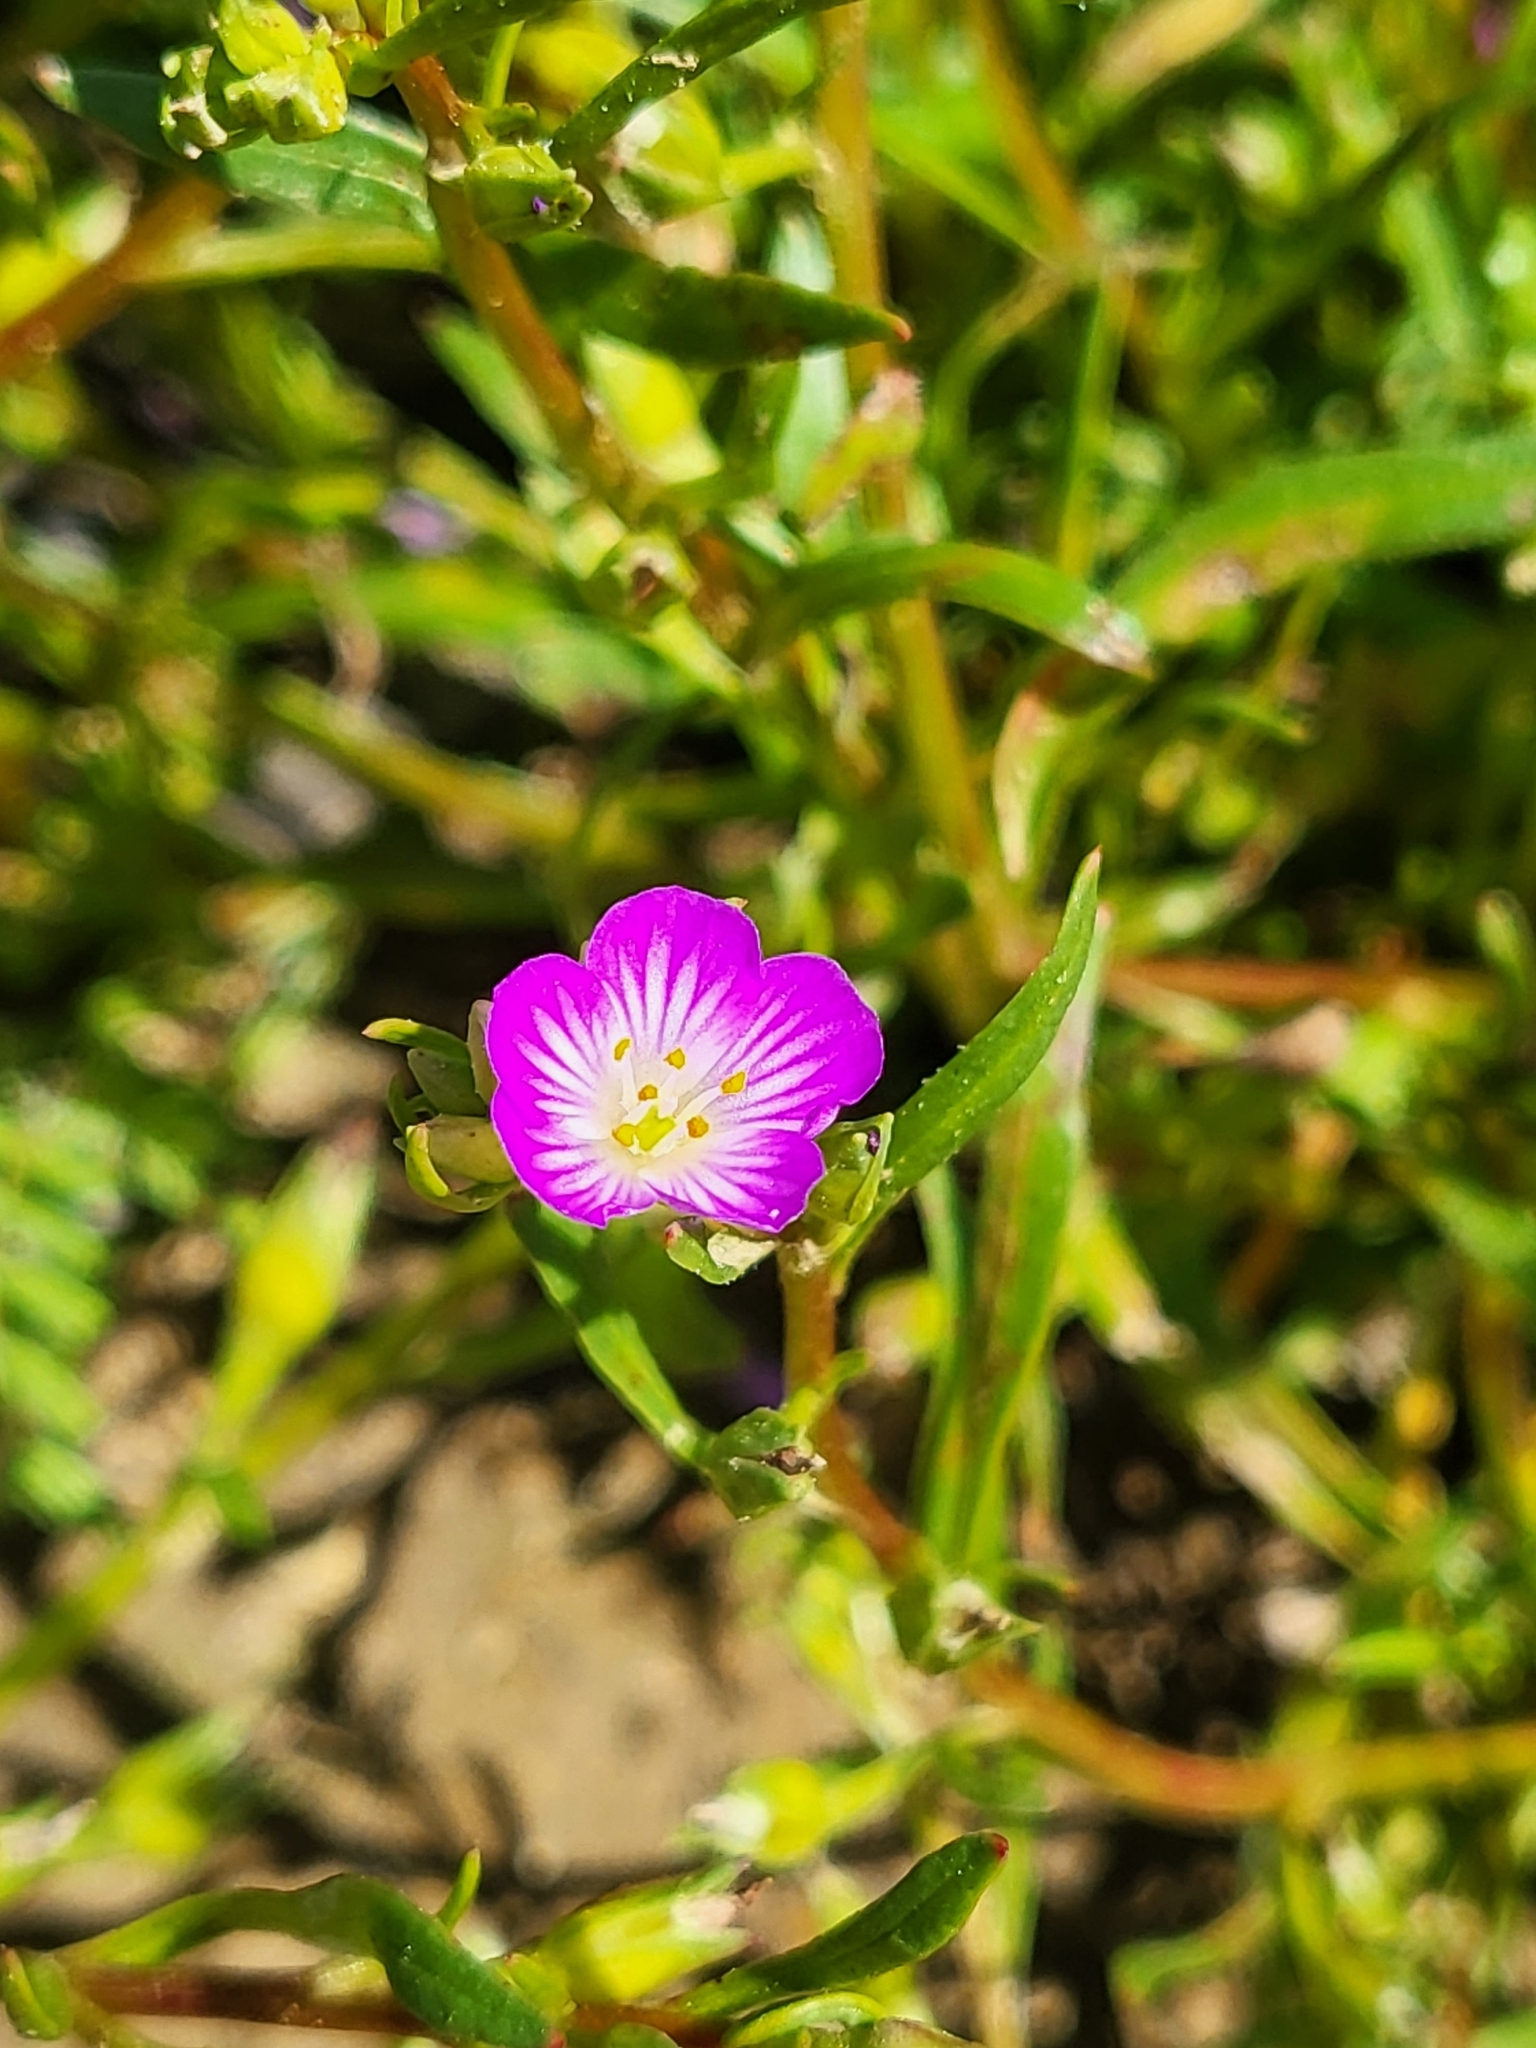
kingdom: Plantae
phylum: Tracheophyta
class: Magnoliopsida
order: Caryophyllales
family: Montiaceae
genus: Calandrinia
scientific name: Calandrinia menziesii
